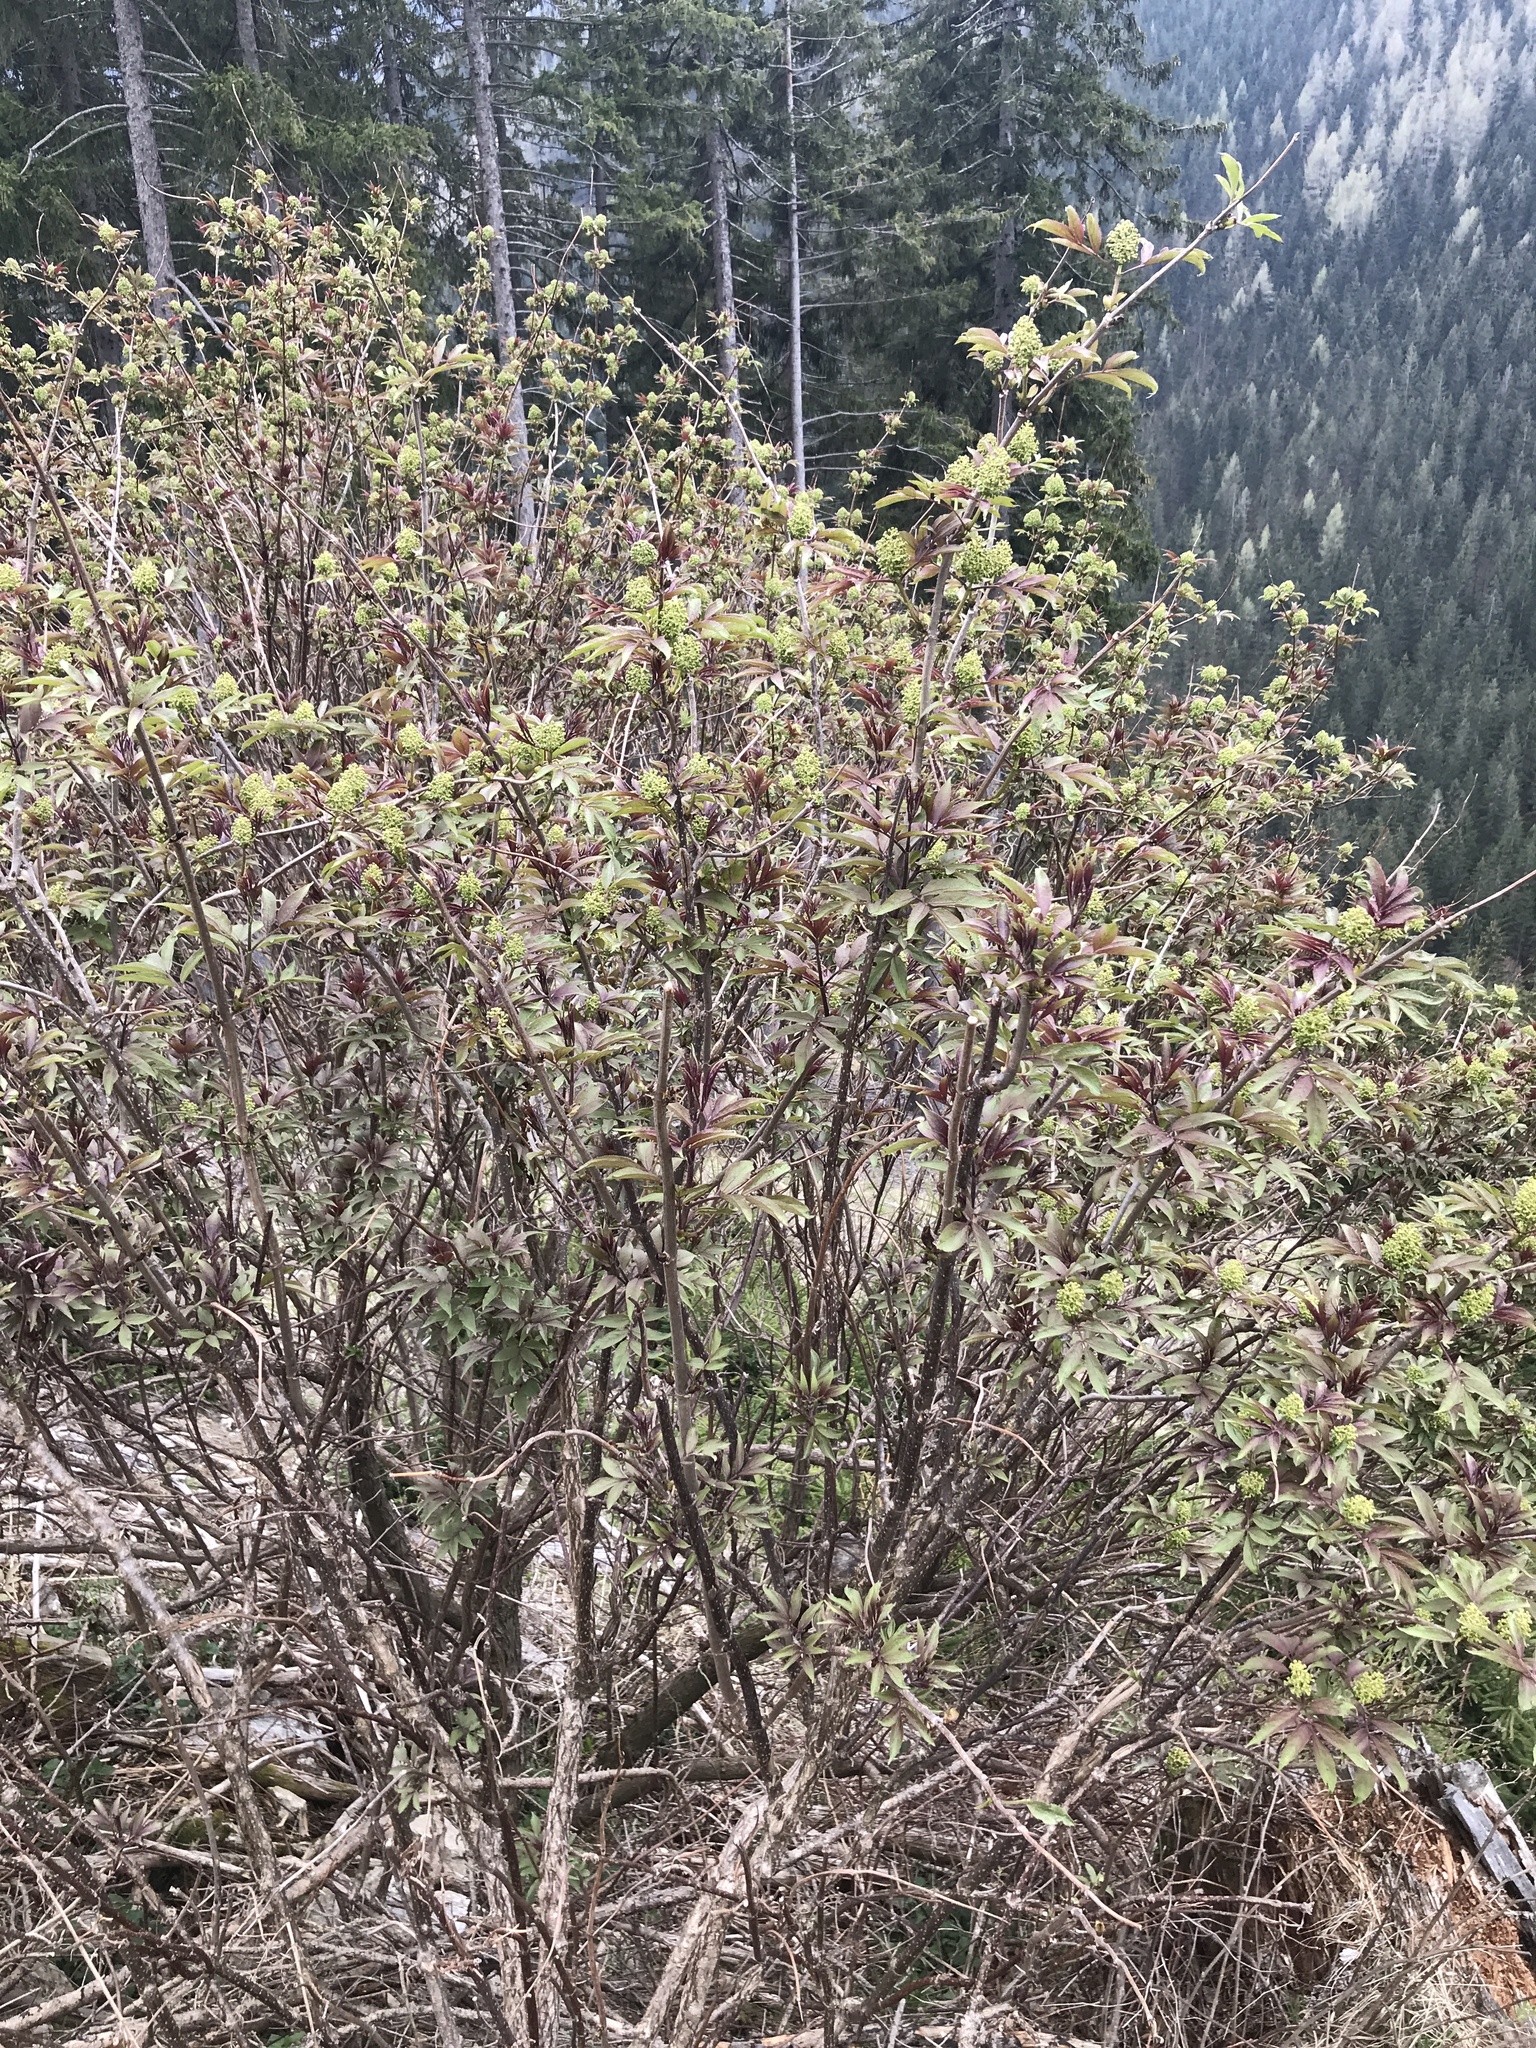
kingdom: Plantae
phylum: Tracheophyta
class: Magnoliopsida
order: Dipsacales
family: Viburnaceae
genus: Sambucus
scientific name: Sambucus racemosa
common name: Red-berried elder
